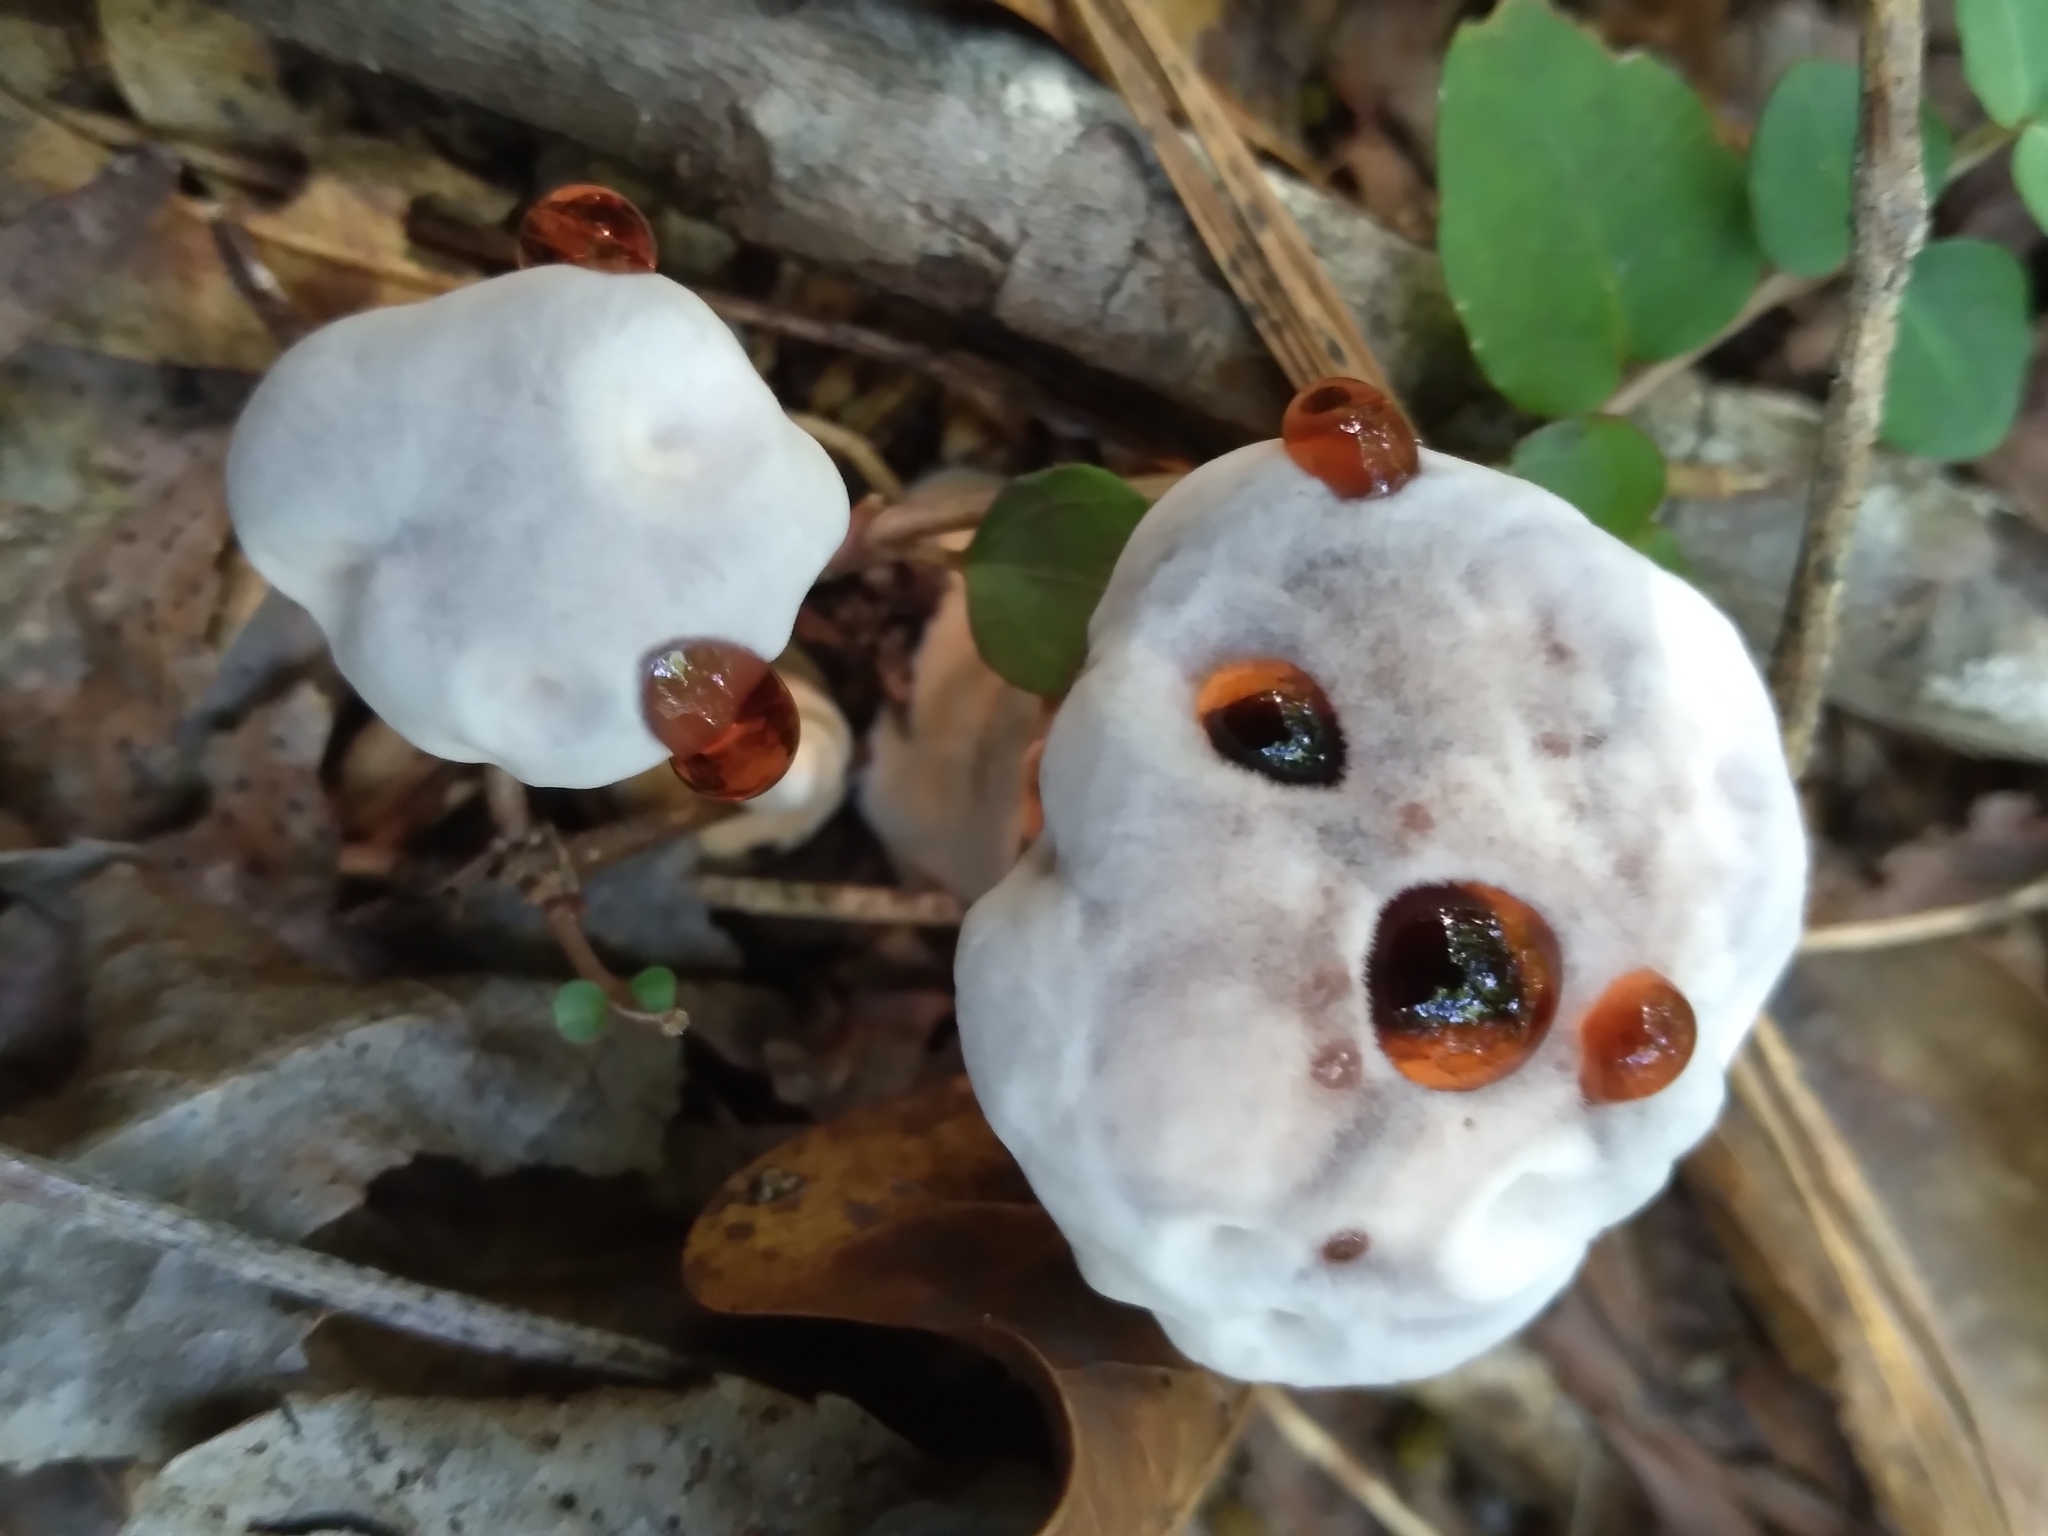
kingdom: Fungi
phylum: Basidiomycota
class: Agaricomycetes
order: Thelephorales
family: Bankeraceae
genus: Hydnellum
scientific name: Hydnellum peckii
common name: Devil's tooth
